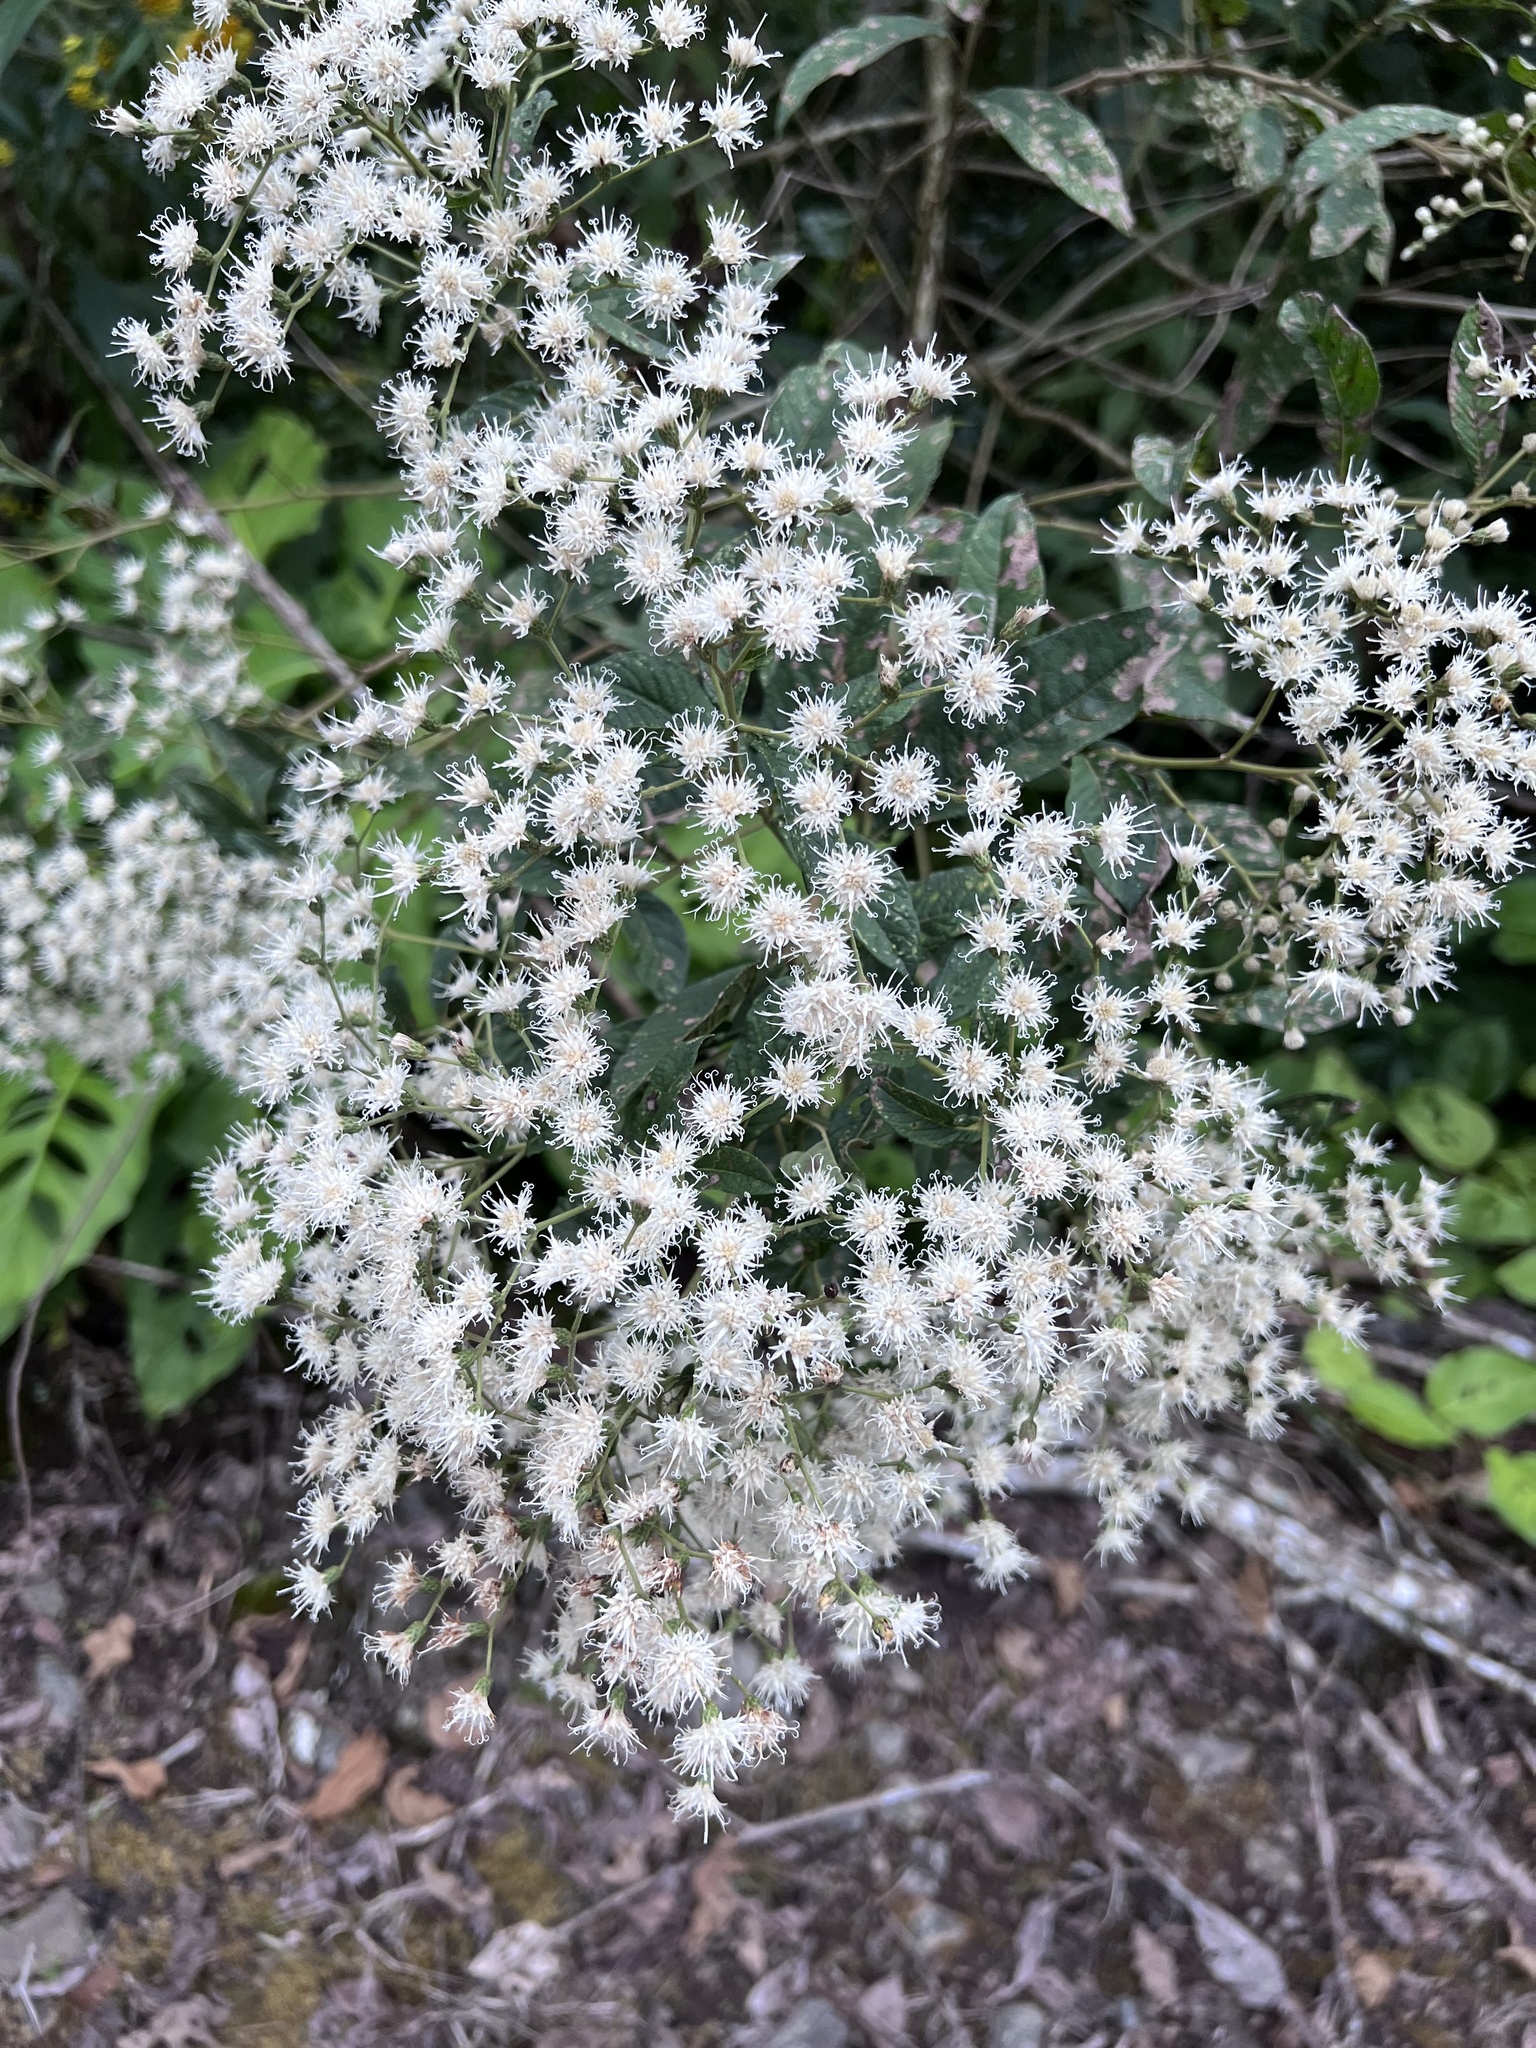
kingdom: Plantae
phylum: Tracheophyta
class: Magnoliopsida
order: Asterales
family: Asteraceae
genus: Vernonanthura
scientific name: Vernonanthura patens
